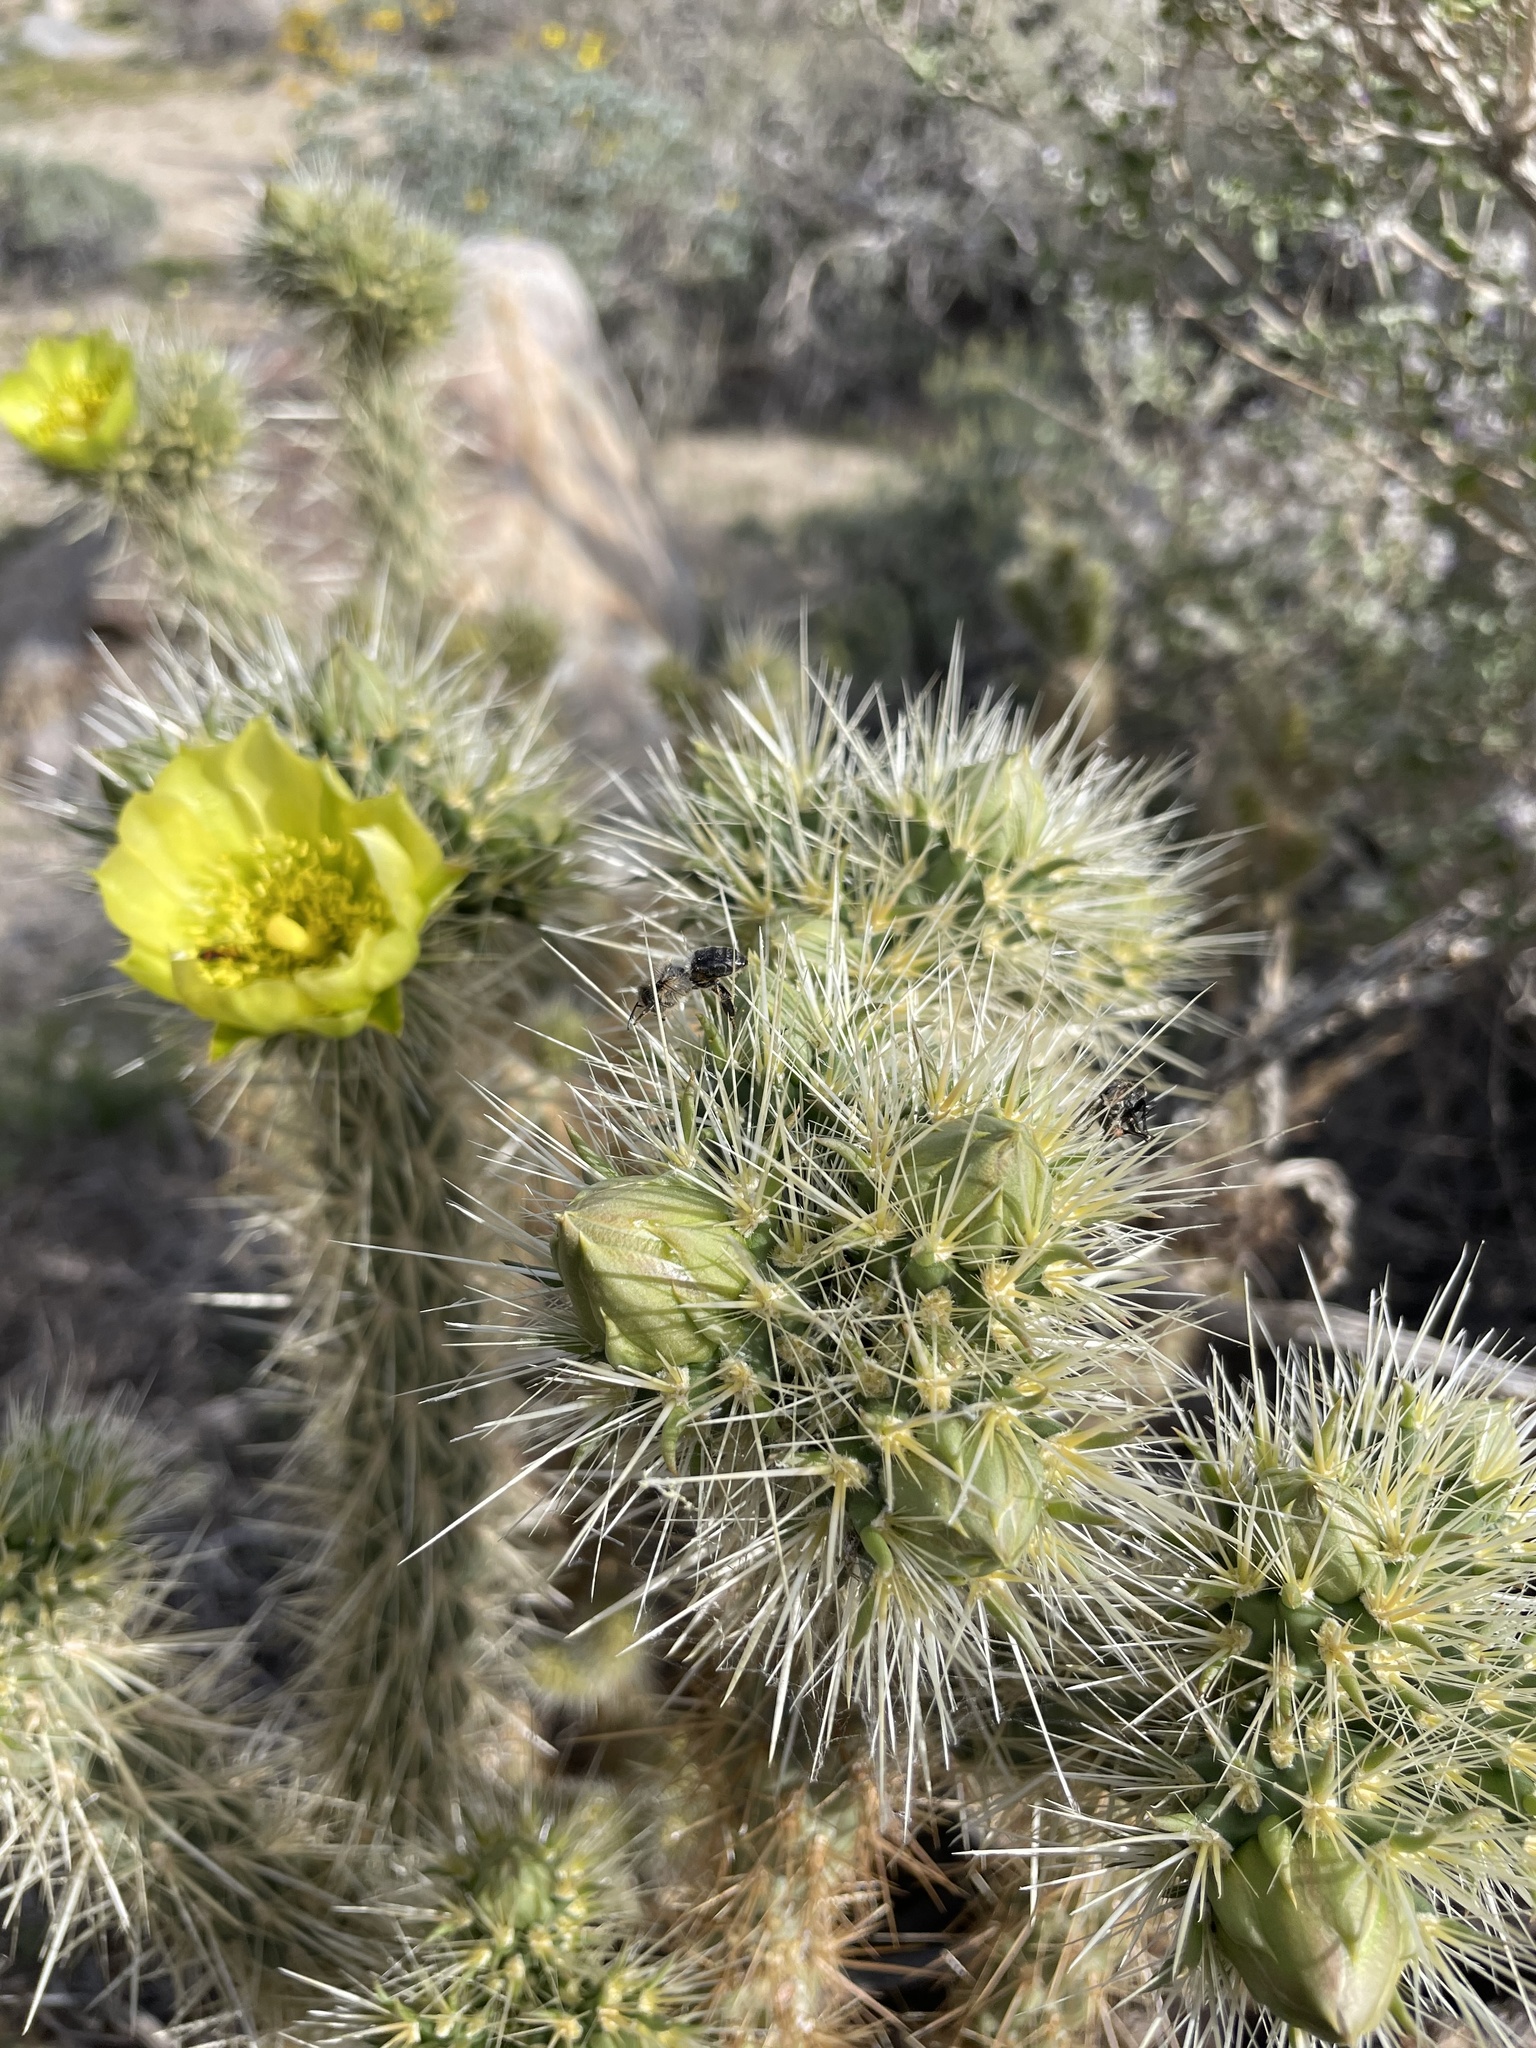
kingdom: Plantae
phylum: Tracheophyta
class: Magnoliopsida
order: Caryophyllales
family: Cactaceae
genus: Cylindropuntia
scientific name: Cylindropuntia ganderi
